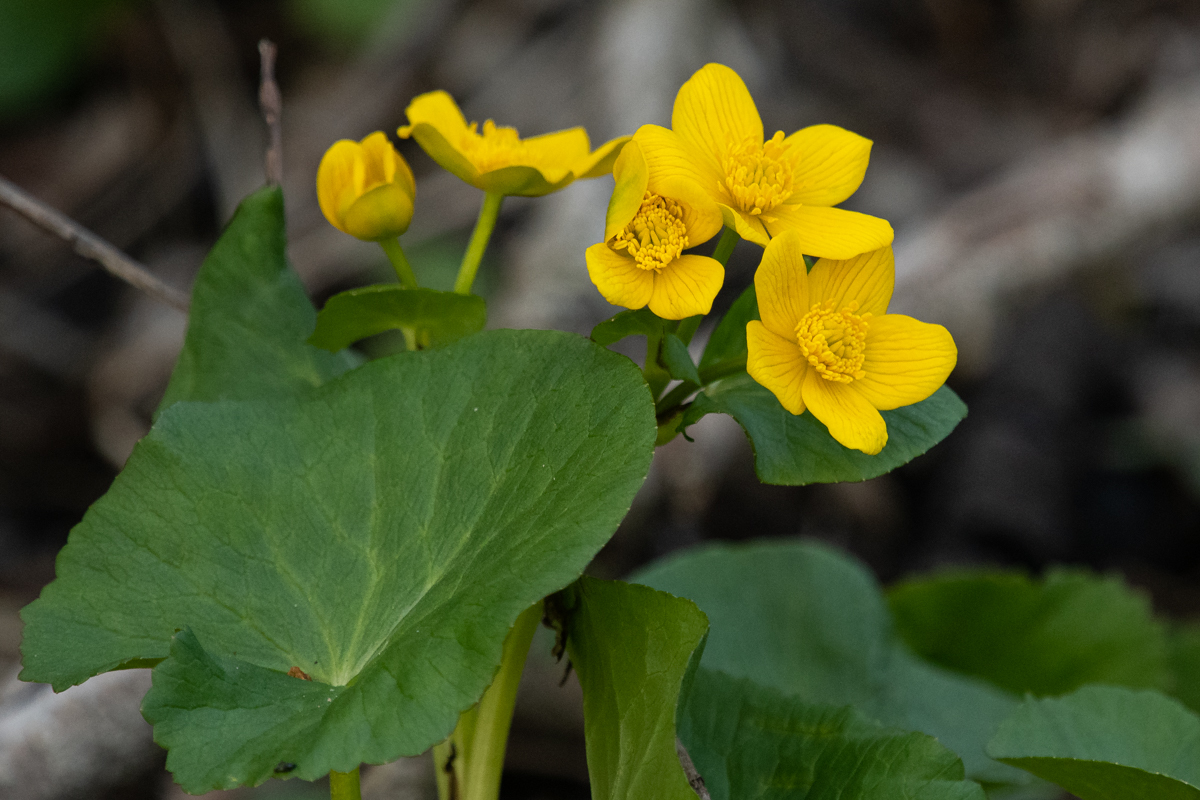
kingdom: Plantae
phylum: Tracheophyta
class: Magnoliopsida
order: Ranunculales
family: Ranunculaceae
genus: Caltha
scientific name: Caltha palustris
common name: Marsh marigold
